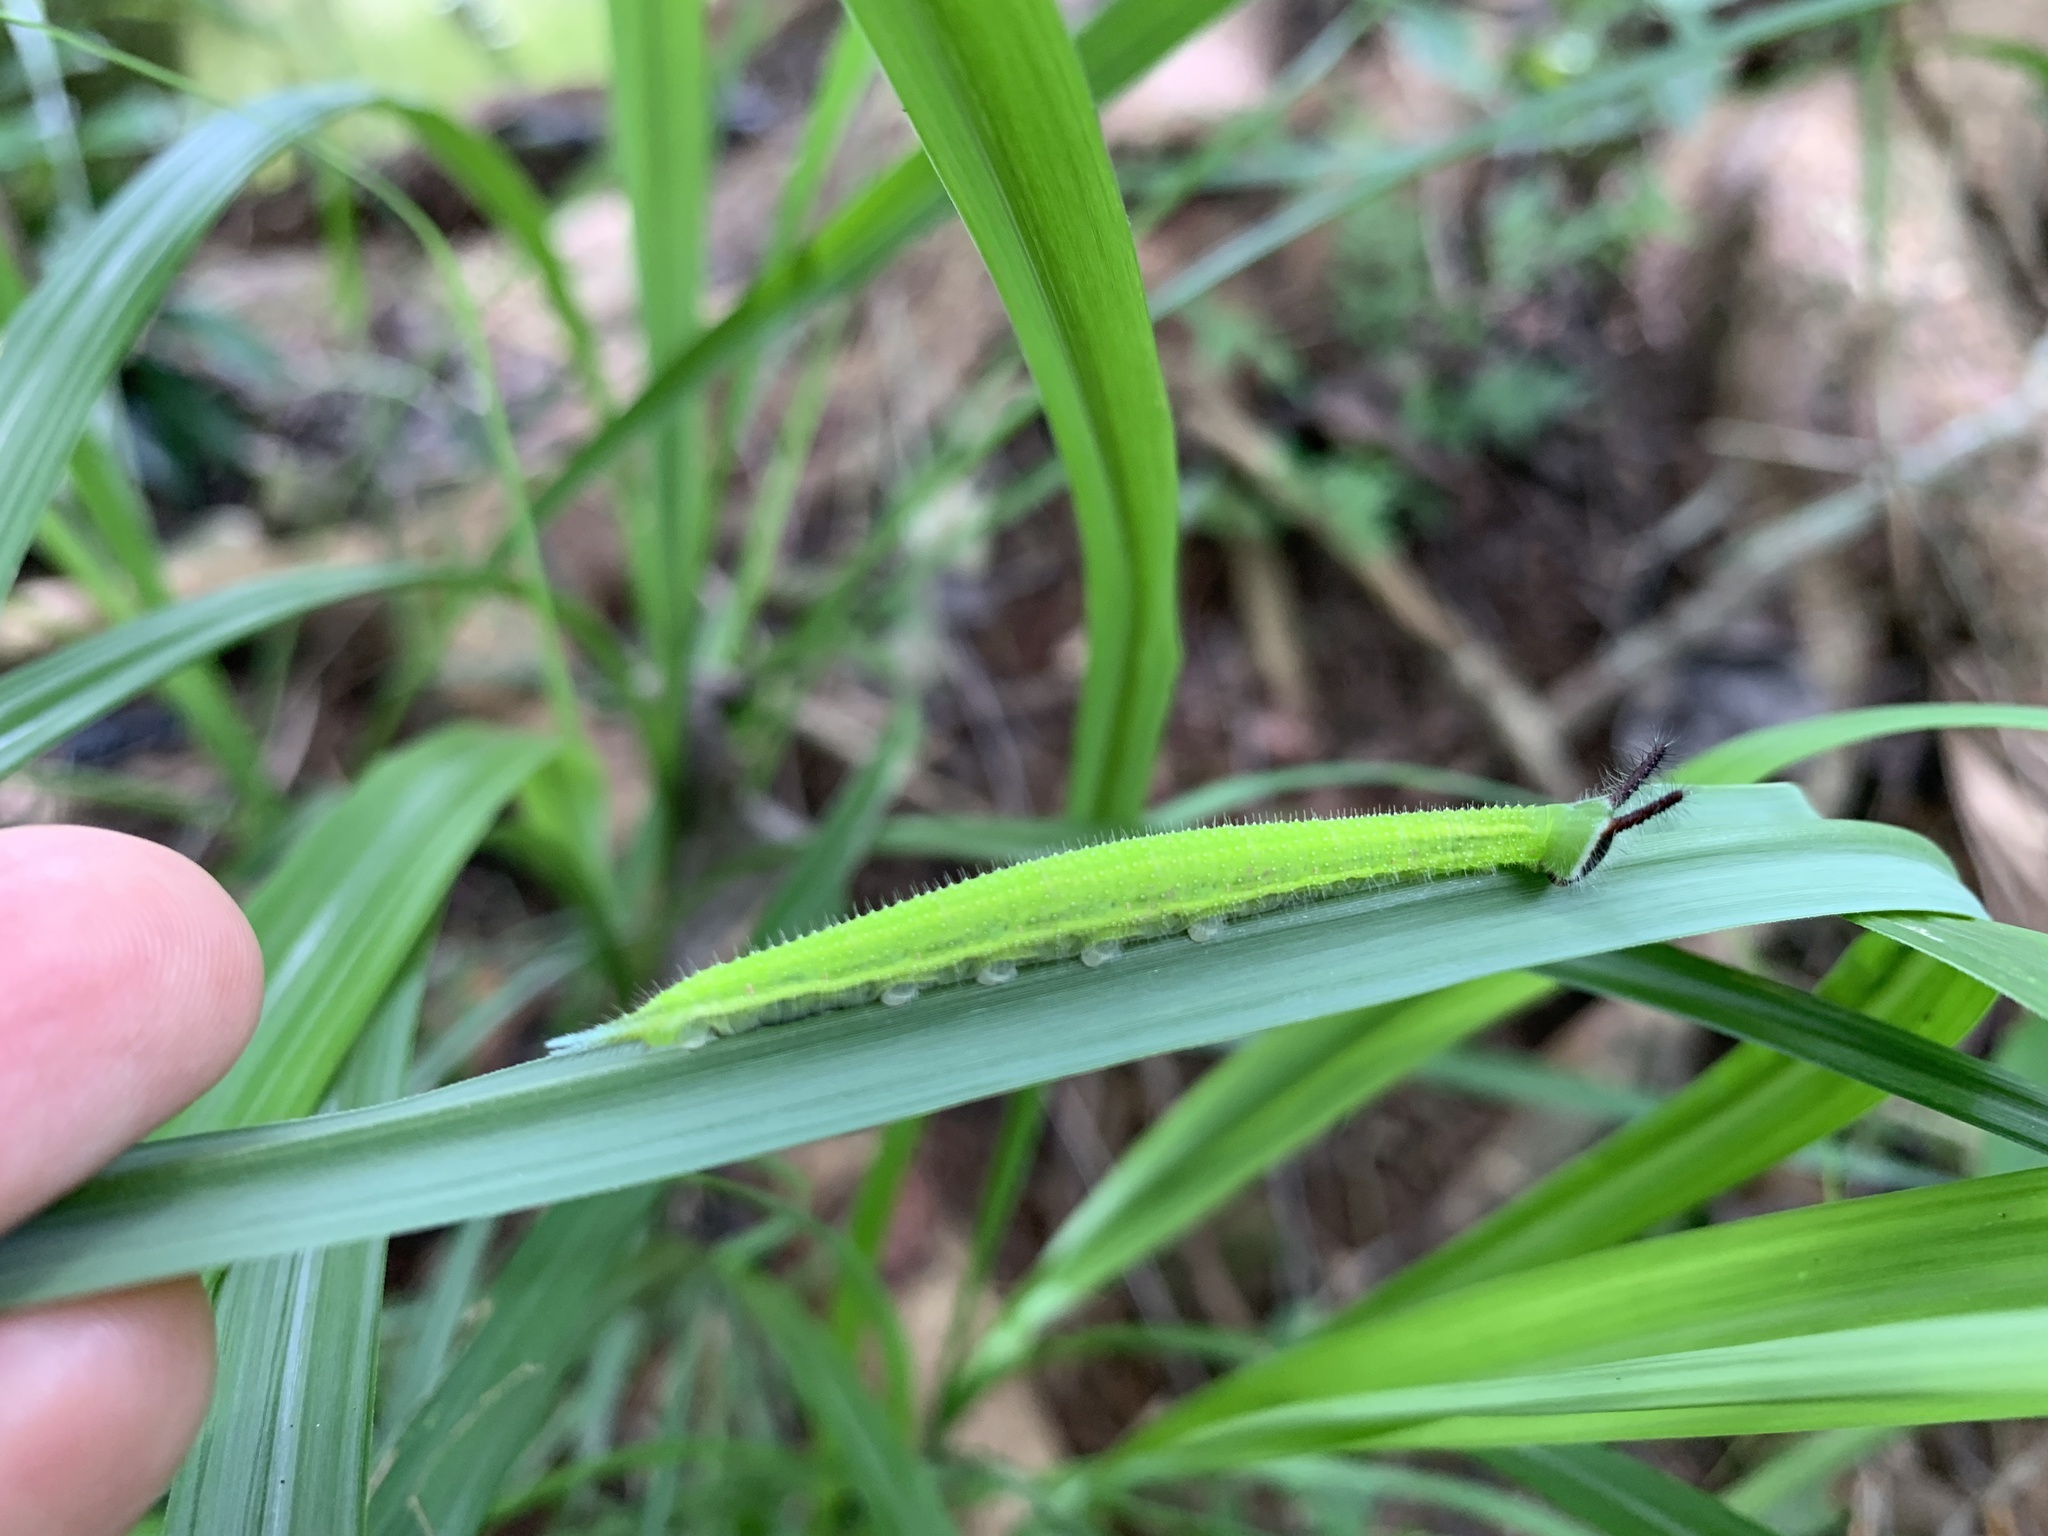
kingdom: Animalia
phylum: Arthropoda
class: Insecta
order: Lepidoptera
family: Nymphalidae
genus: Melanitis
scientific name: Melanitis phedima
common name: Dark evening brown
